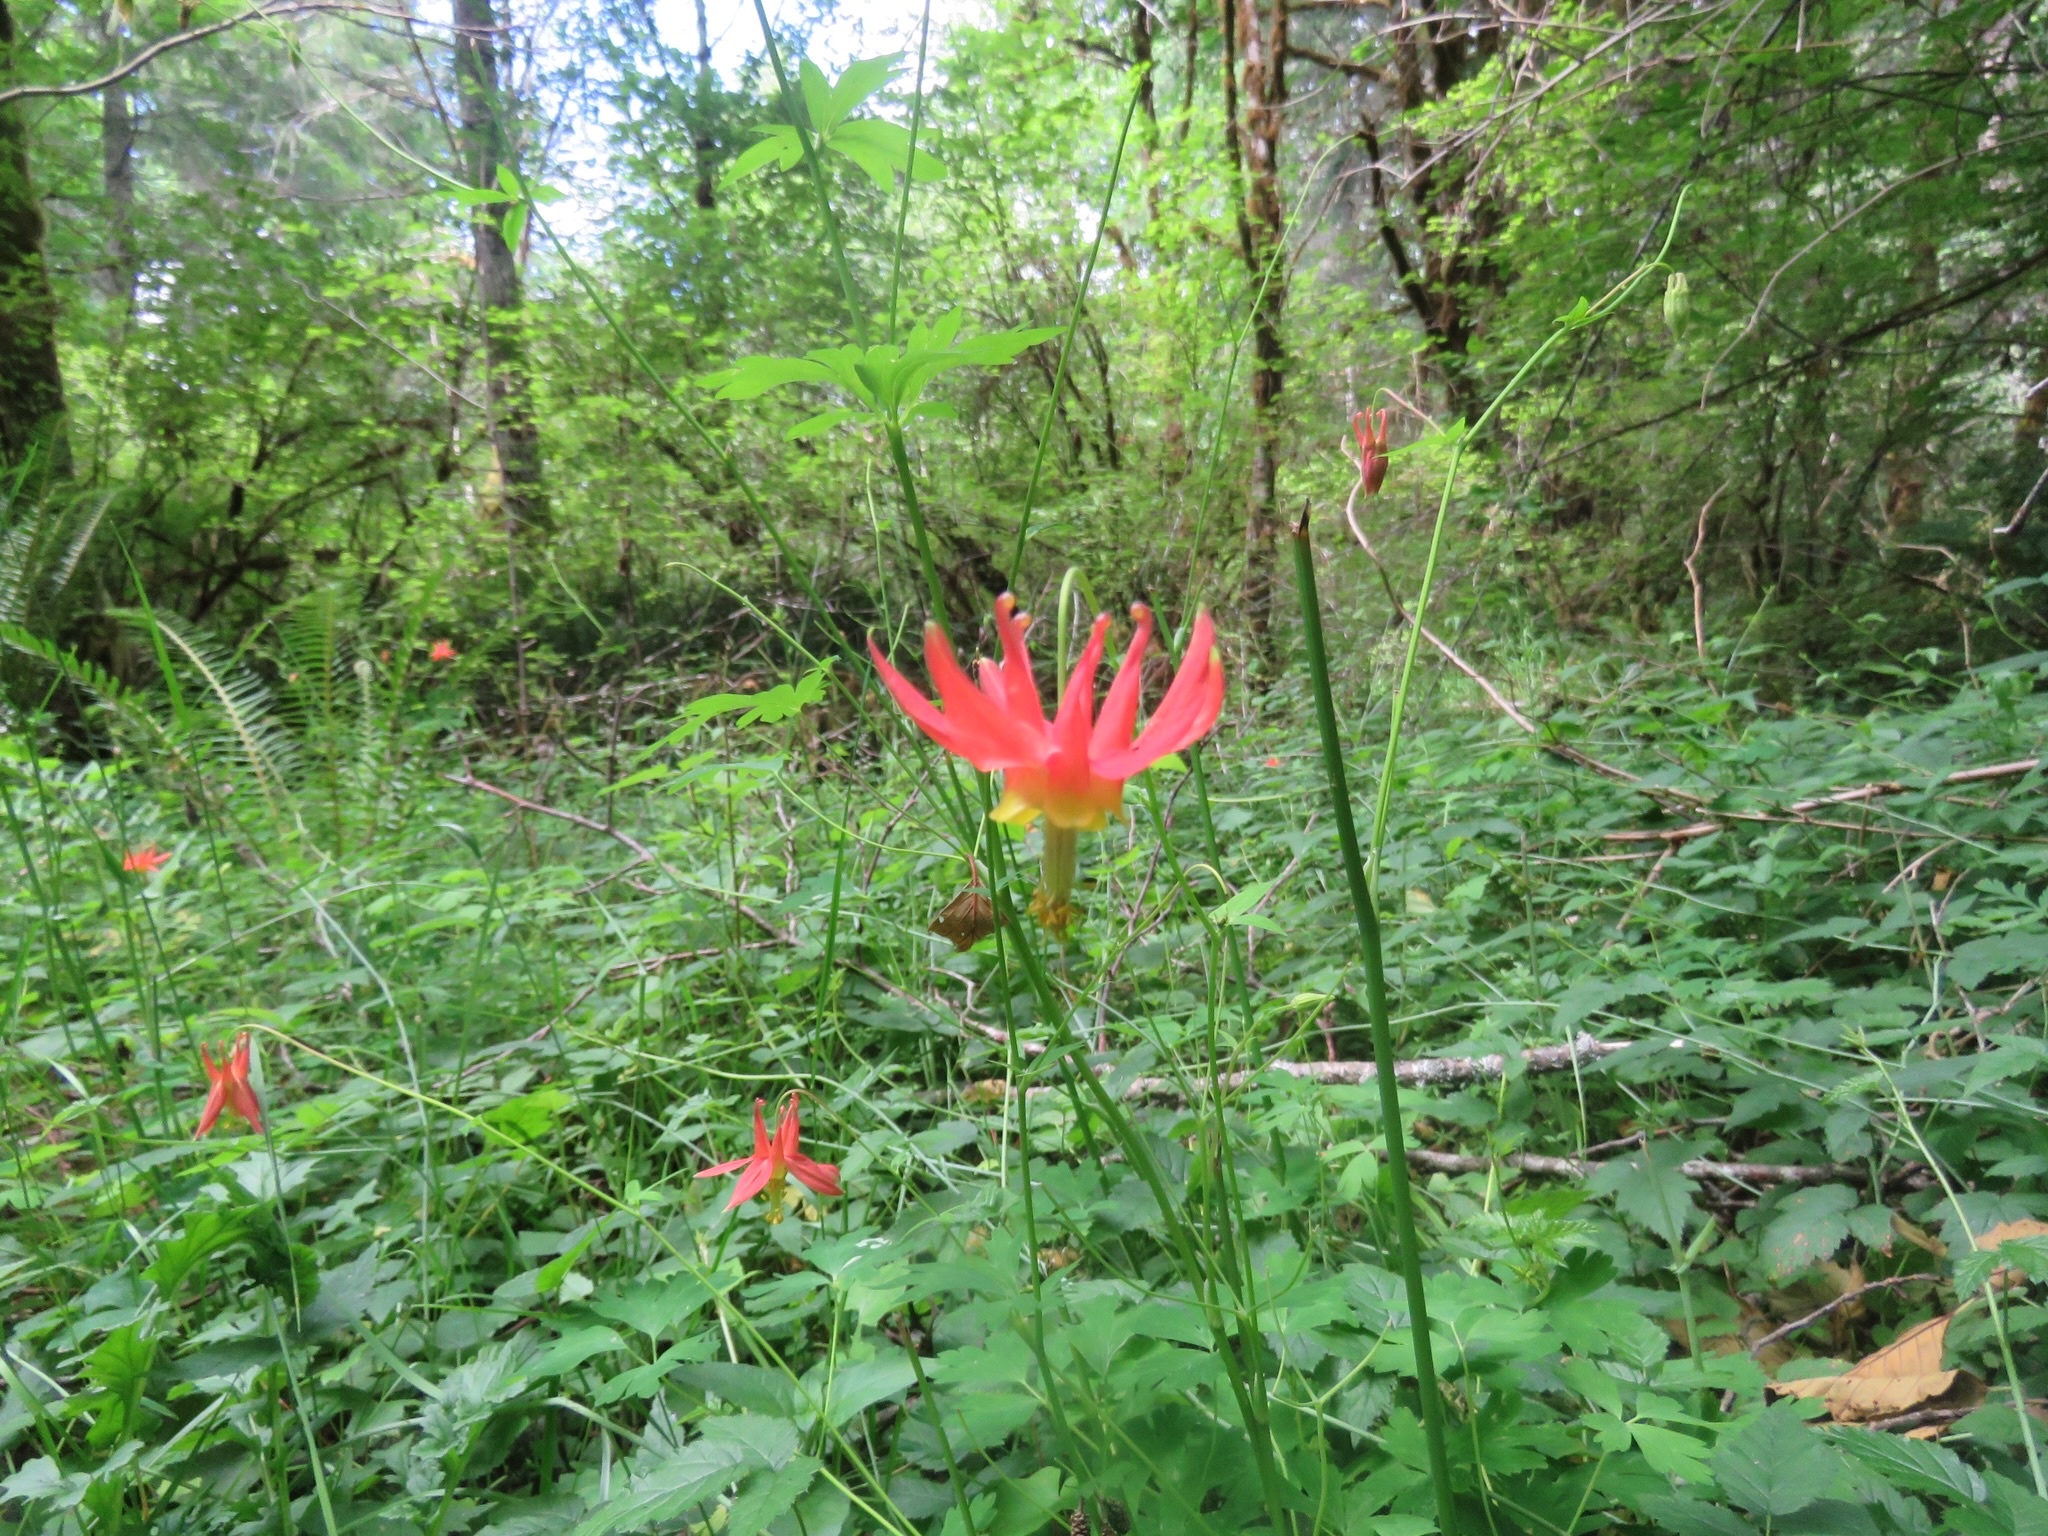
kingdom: Plantae
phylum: Tracheophyta
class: Magnoliopsida
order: Ranunculales
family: Ranunculaceae
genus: Aquilegia
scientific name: Aquilegia formosa
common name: Sitka columbine
